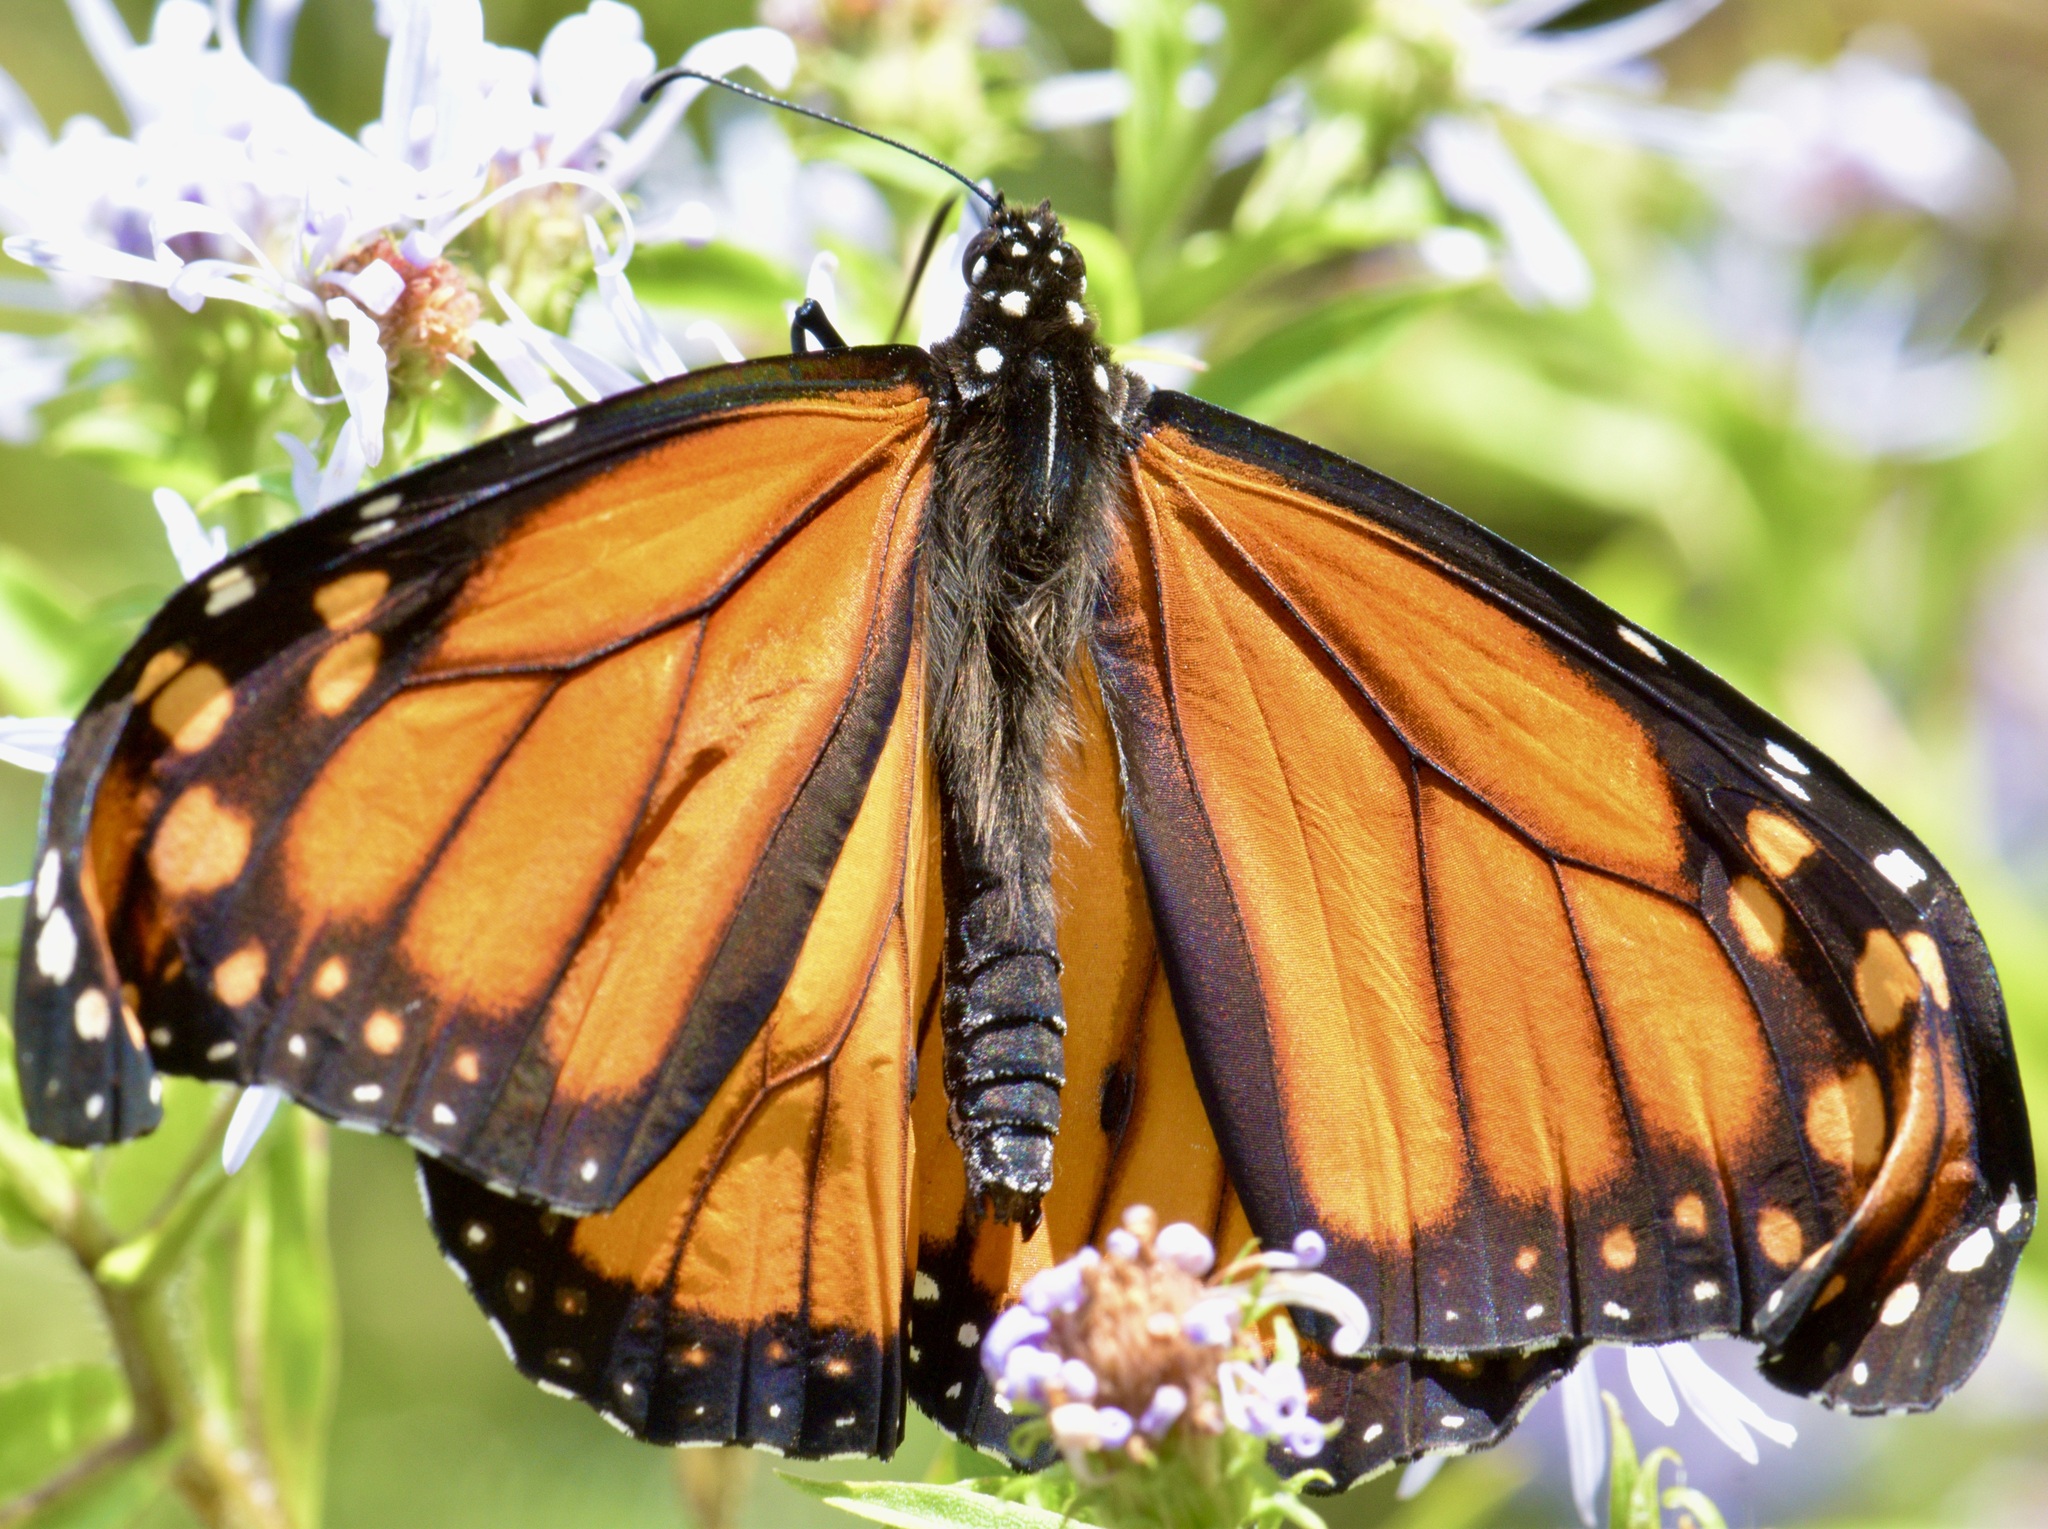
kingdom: Animalia
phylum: Arthropoda
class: Insecta
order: Lepidoptera
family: Nymphalidae
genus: Danaus
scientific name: Danaus plexippus
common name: Monarch
